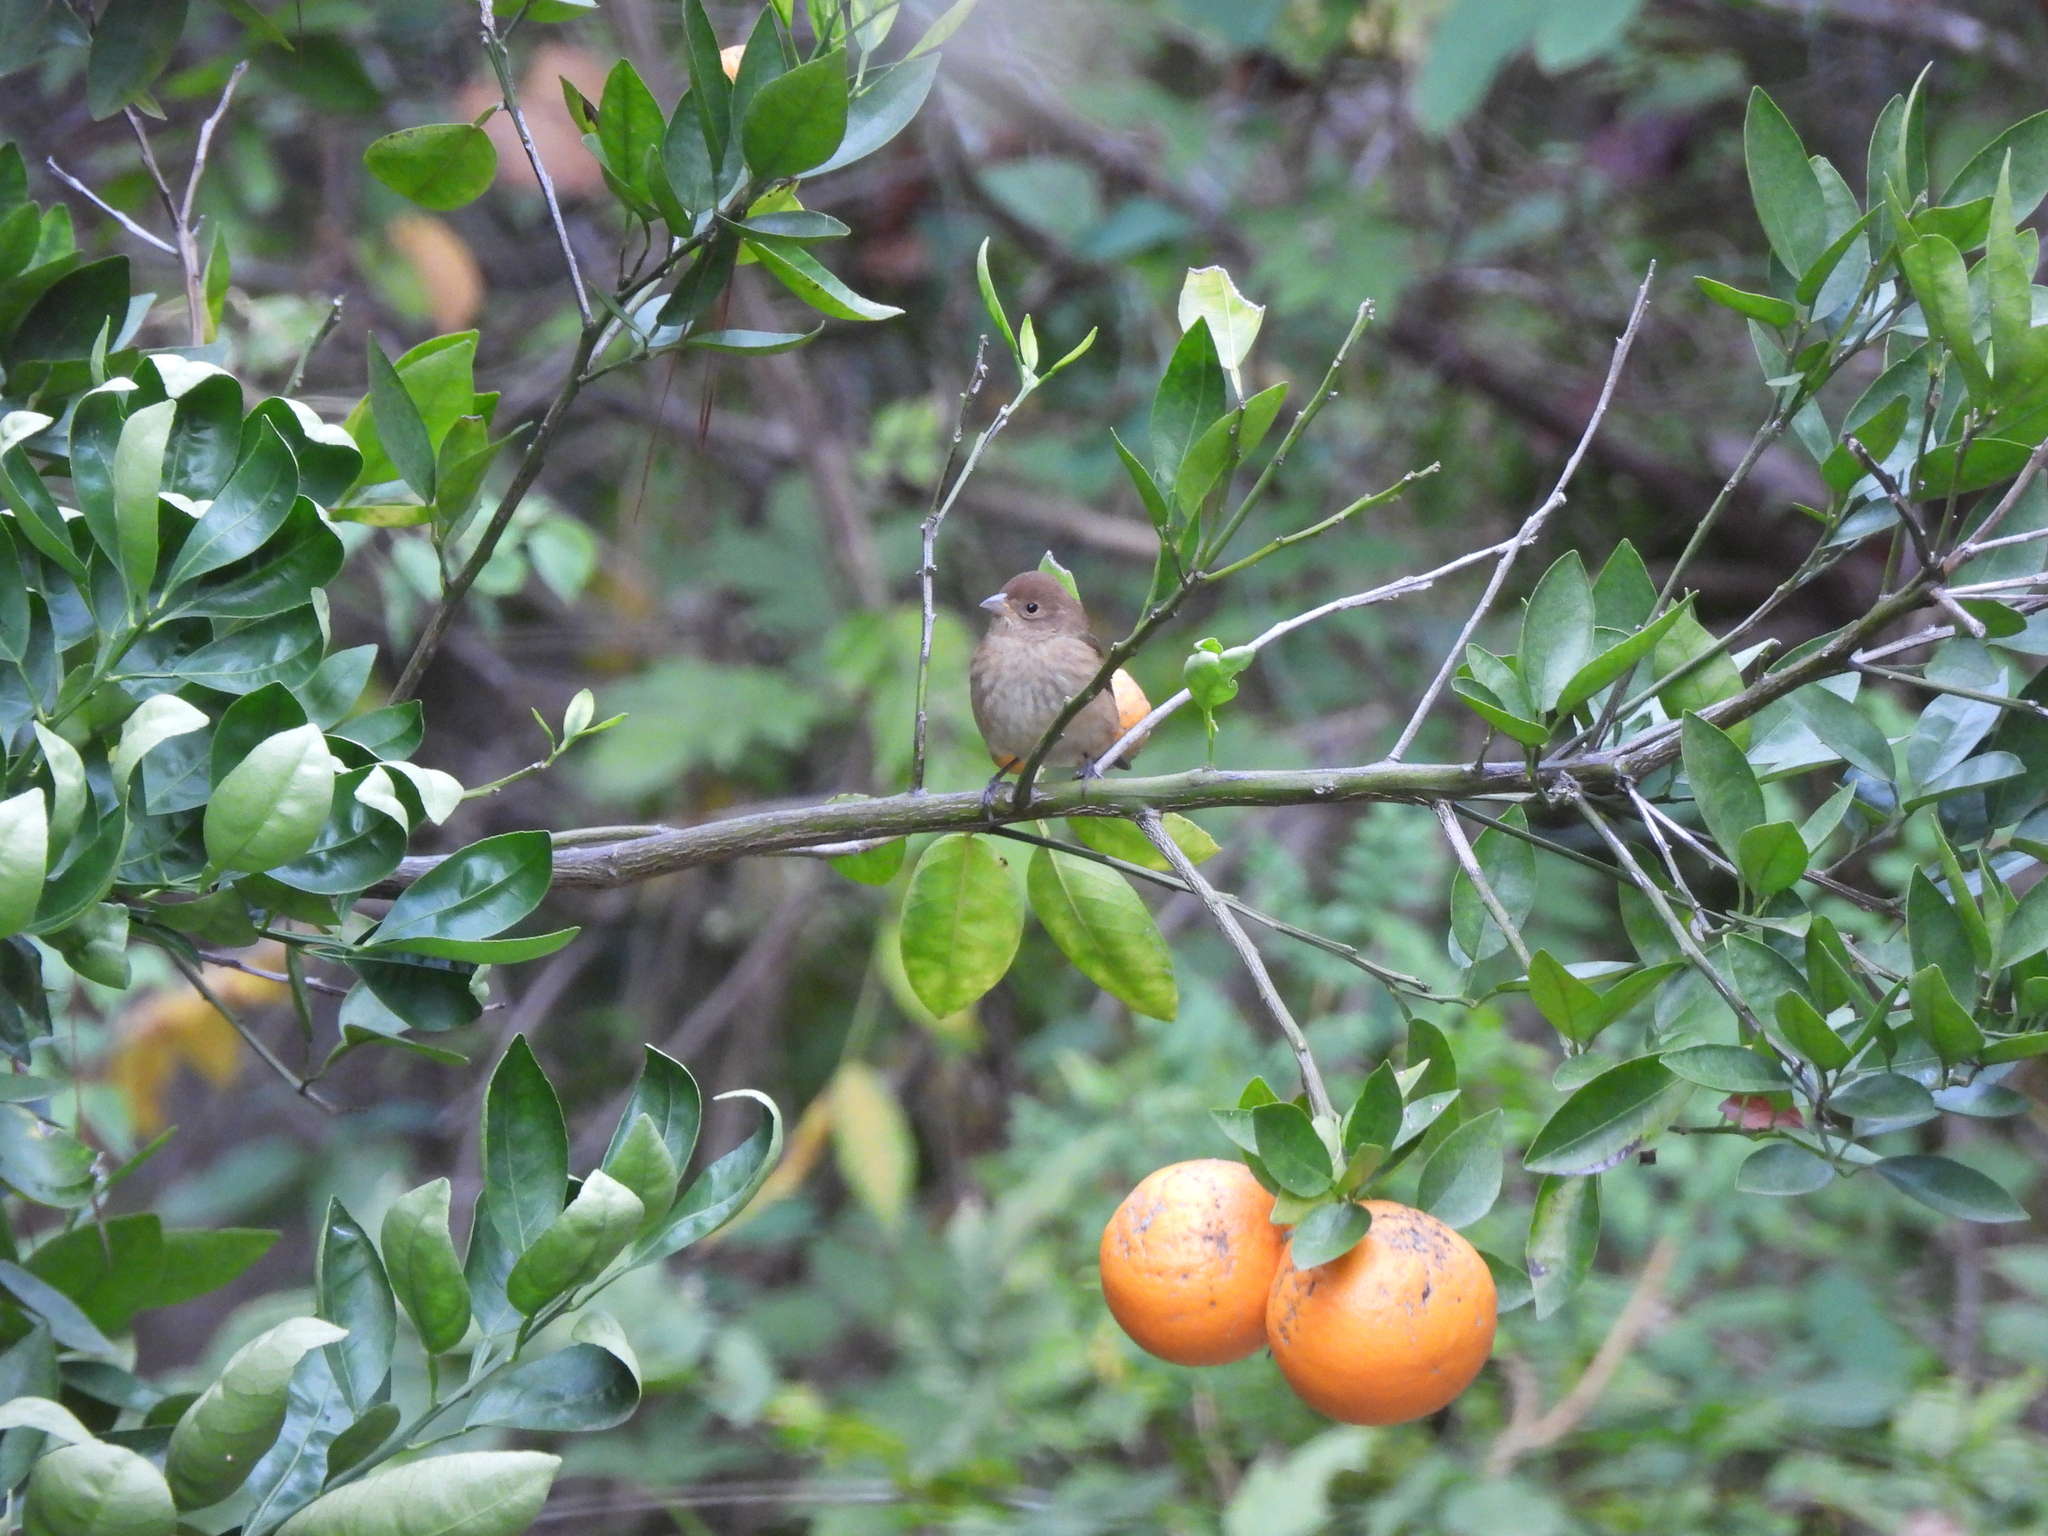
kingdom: Animalia
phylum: Chordata
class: Aves
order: Passeriformes
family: Cardinalidae
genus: Passerina
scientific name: Passerina cyanea
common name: Indigo bunting
